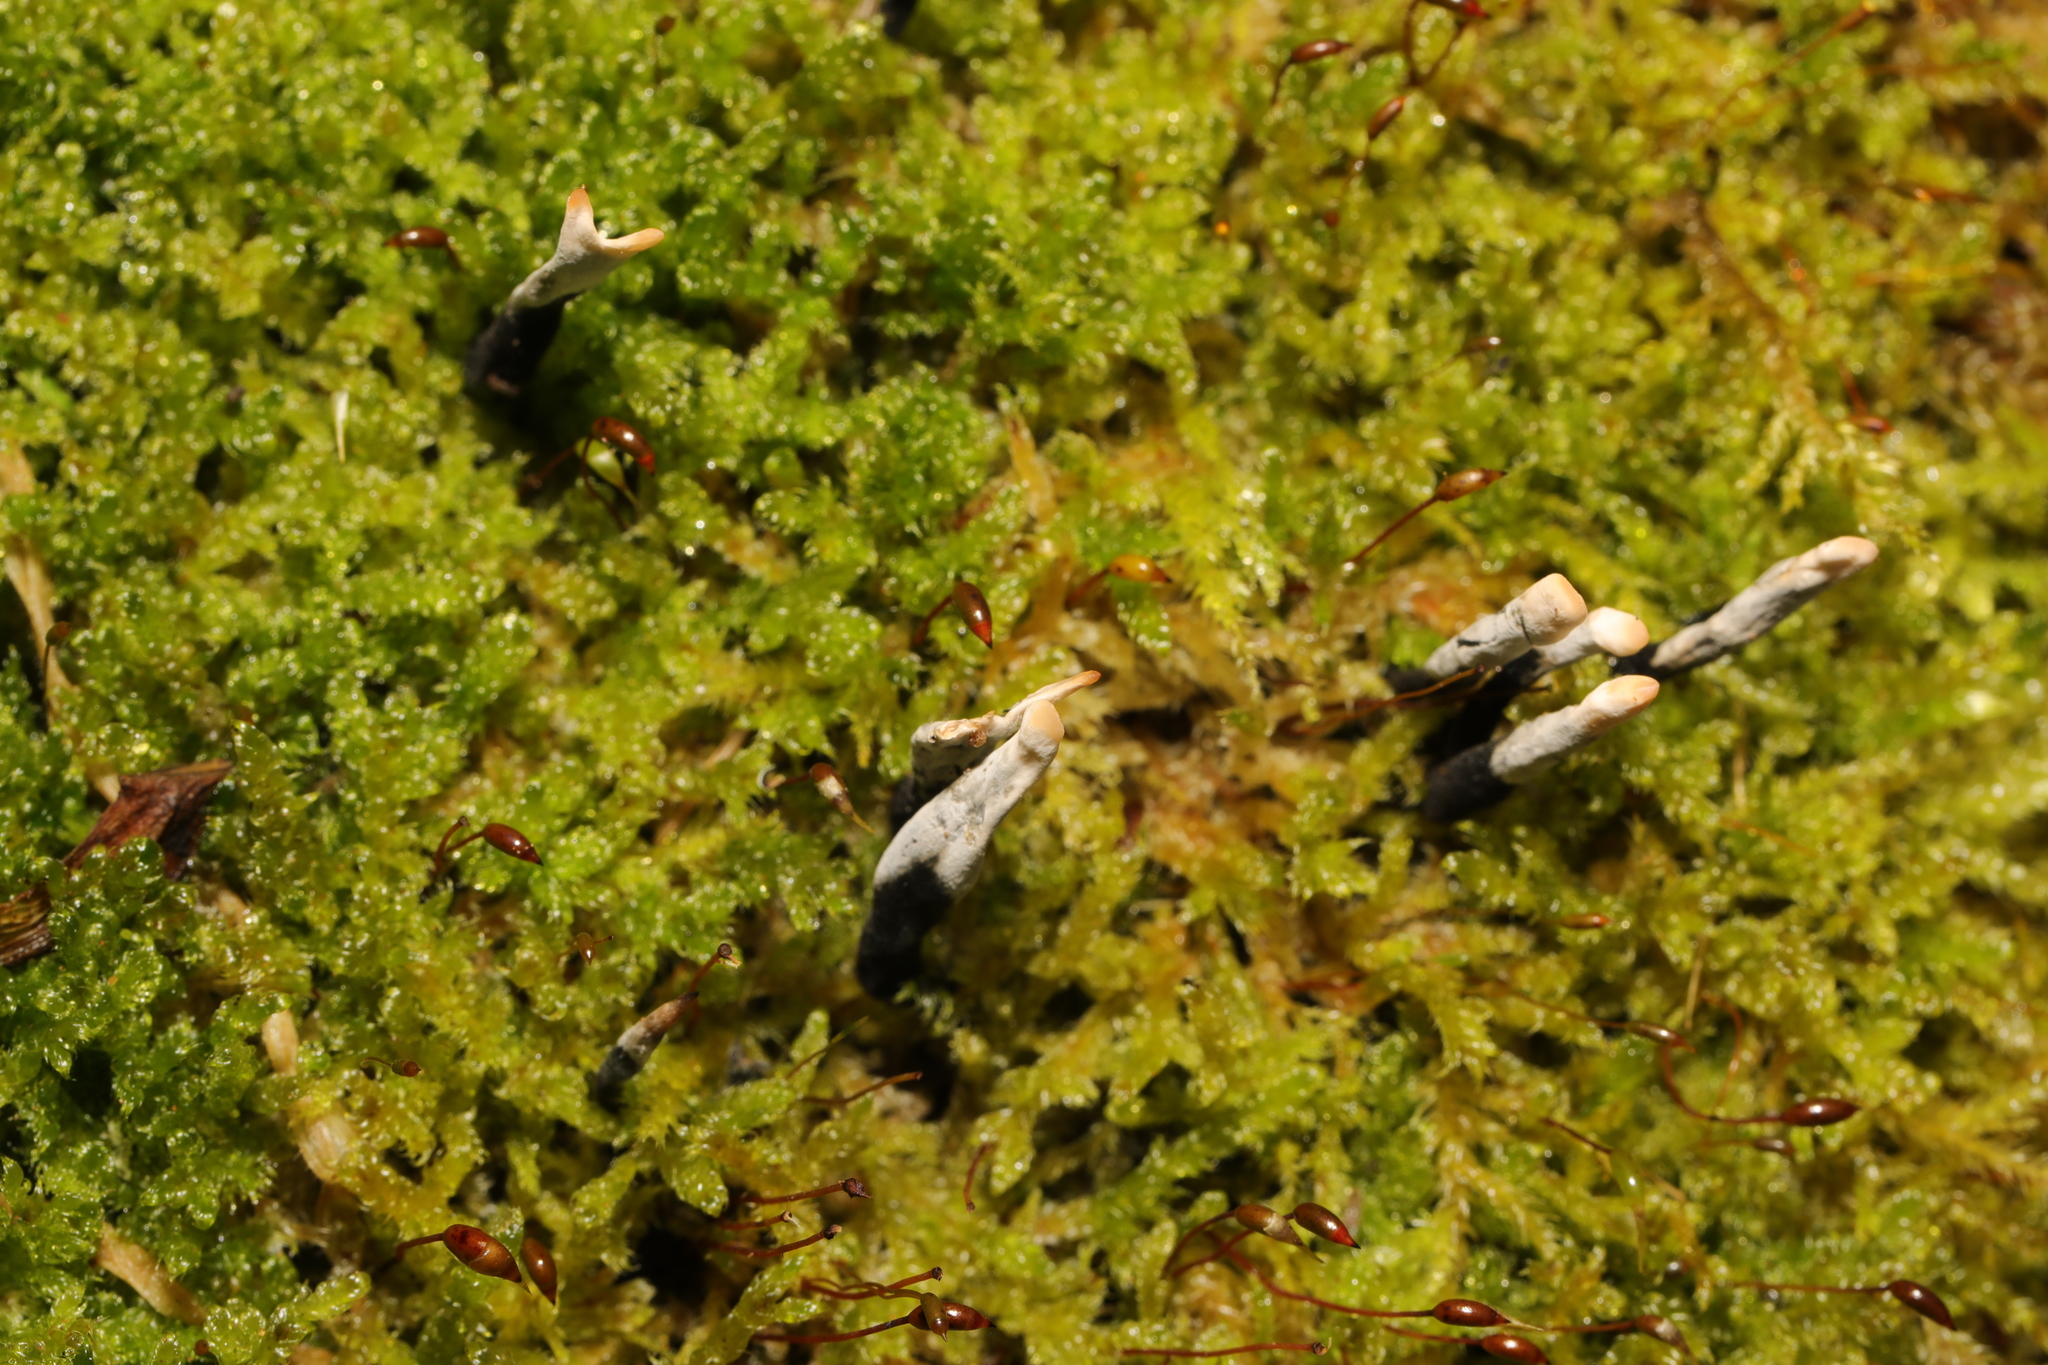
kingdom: Fungi
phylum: Ascomycota
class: Sordariomycetes
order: Xylariales
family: Xylariaceae
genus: Xylaria
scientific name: Xylaria hypoxylon
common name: Candle-snuff fungus
